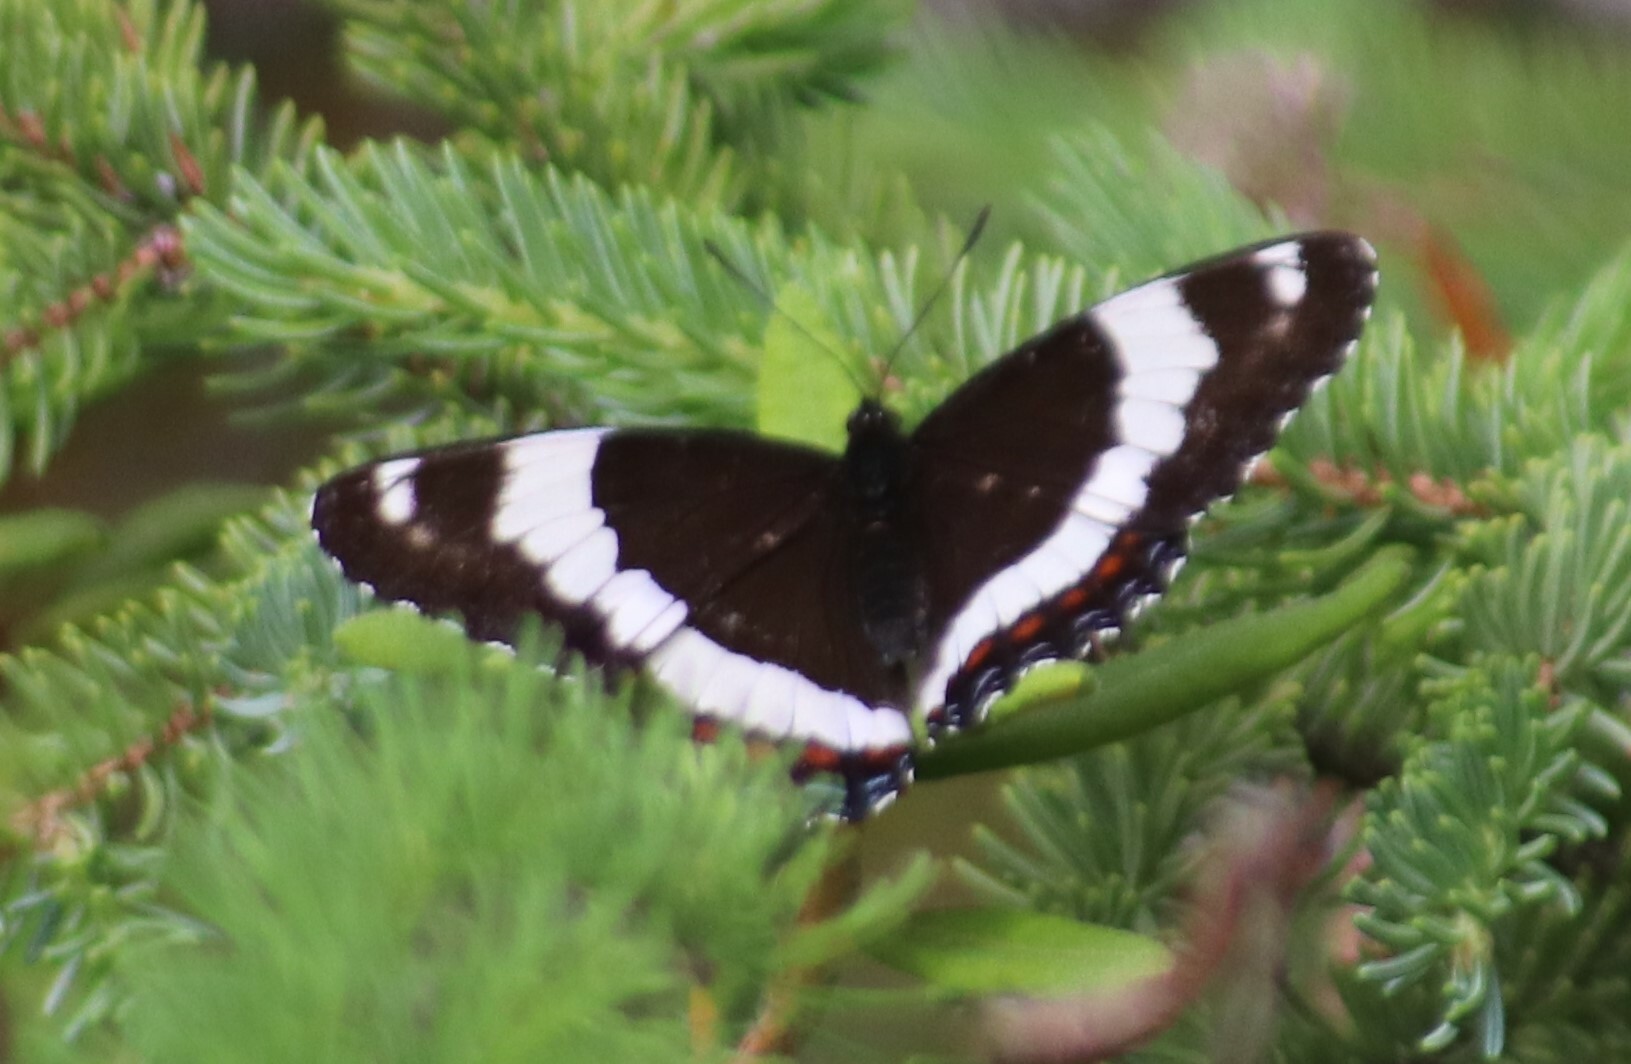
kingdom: Animalia
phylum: Arthropoda
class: Insecta
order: Lepidoptera
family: Nymphalidae
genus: Limenitis
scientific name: Limenitis arthemis
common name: Red-spotted admiral
